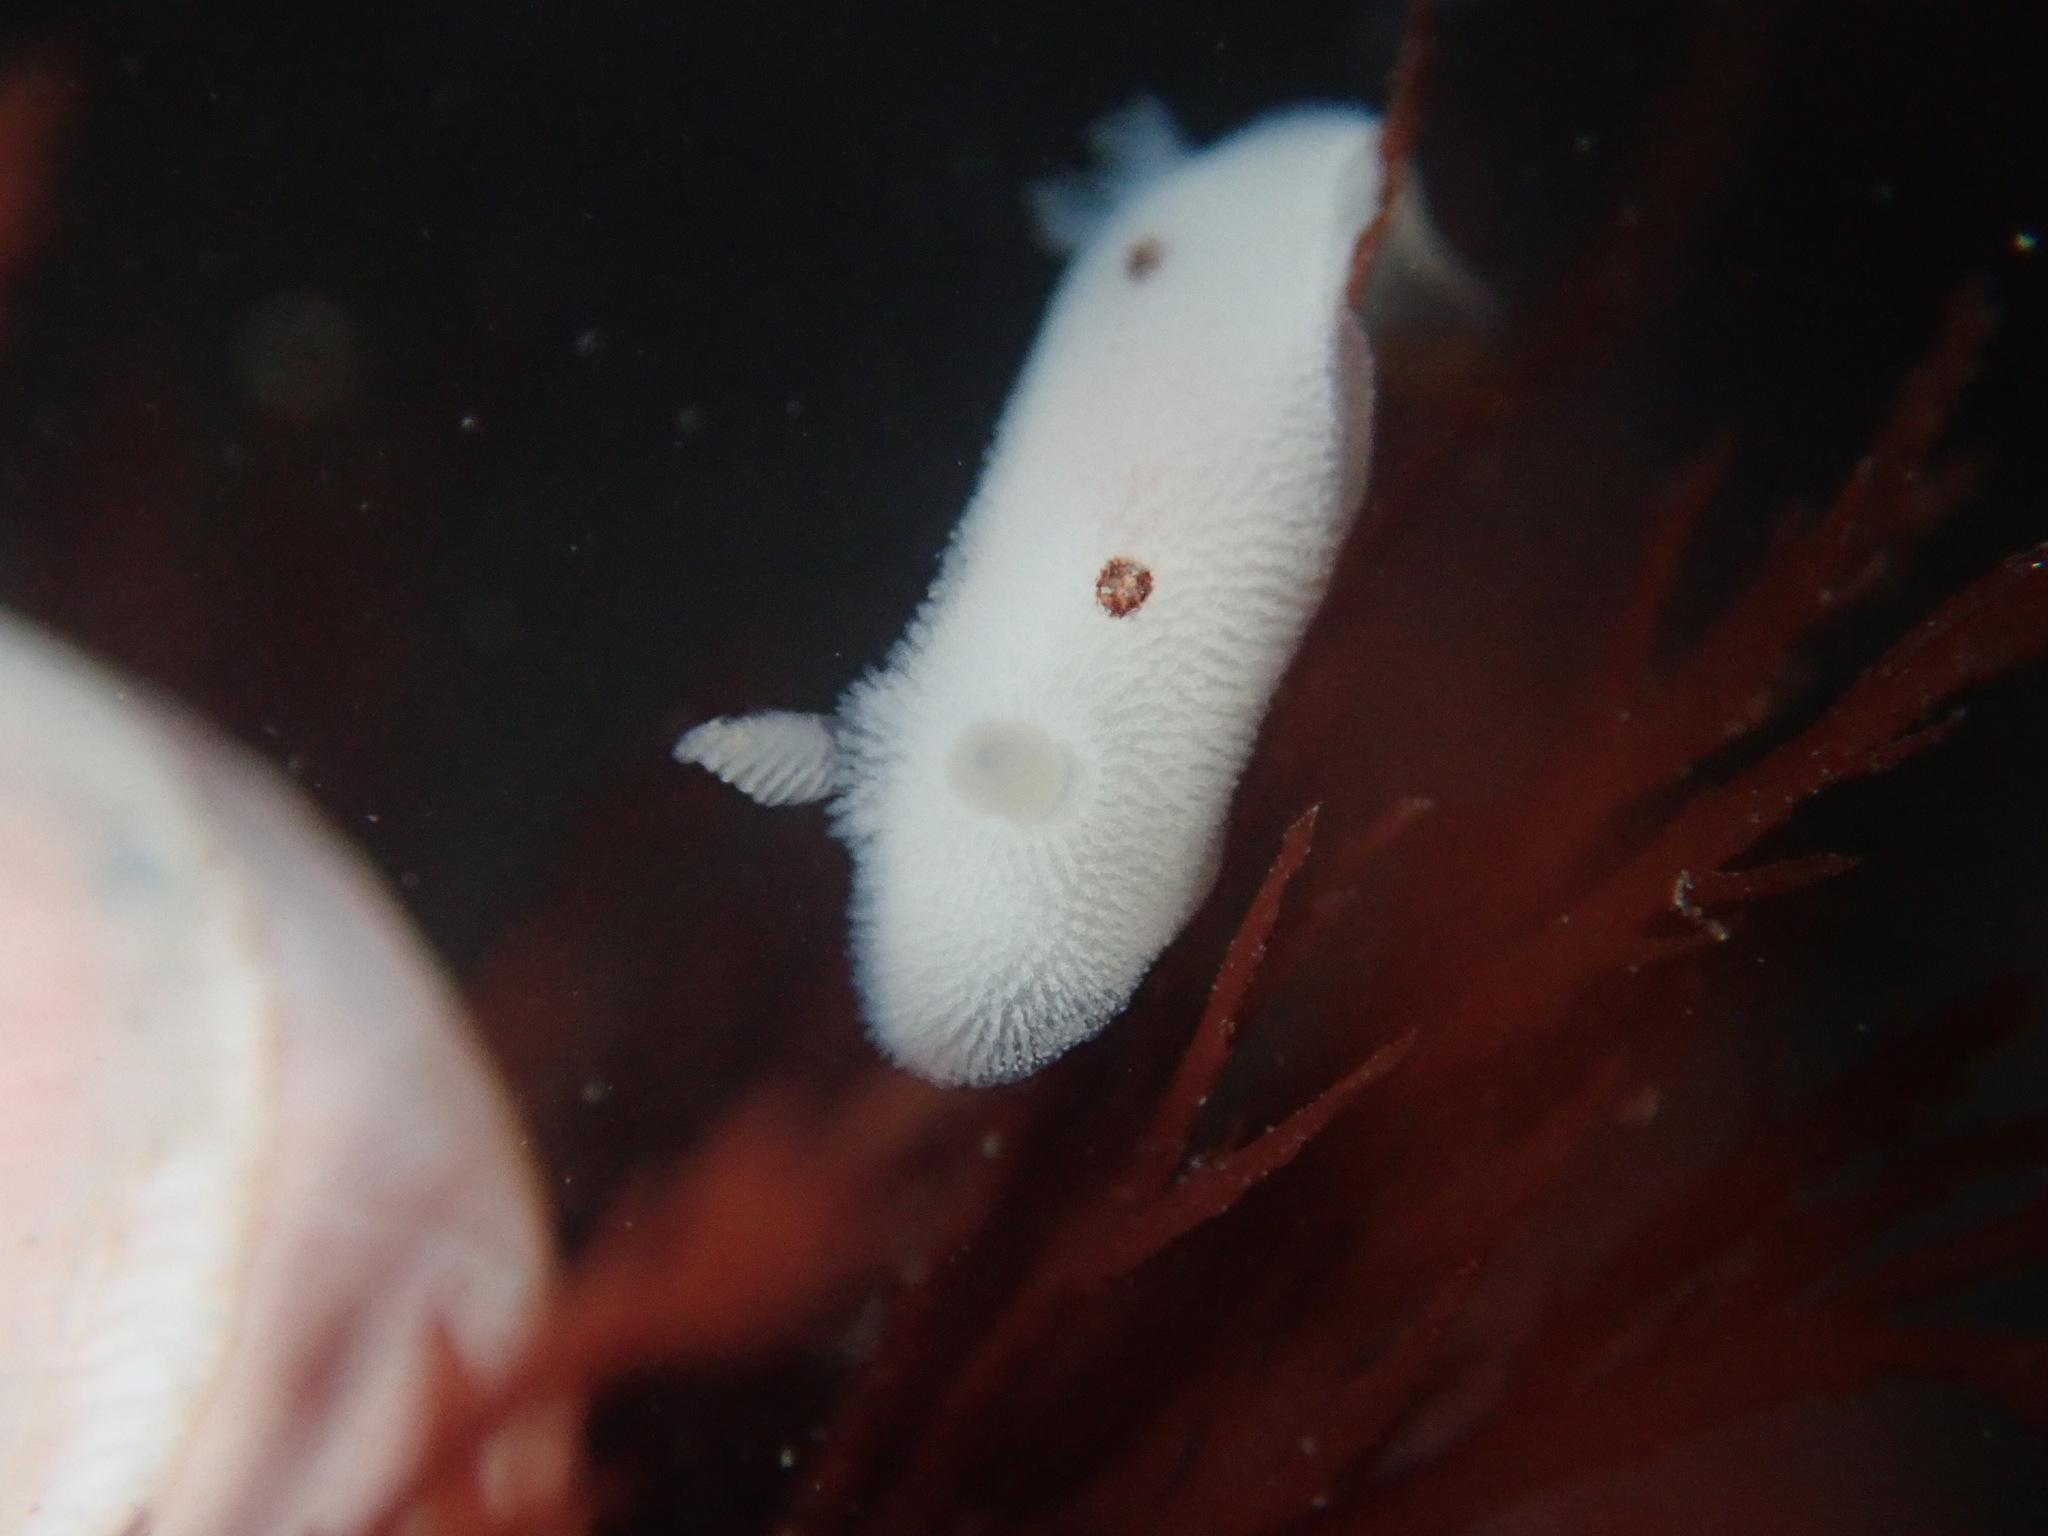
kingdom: Animalia
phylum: Mollusca
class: Gastropoda
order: Nudibranchia
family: Discodorididae
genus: Diaulula
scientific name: Diaulula sandiegensis
